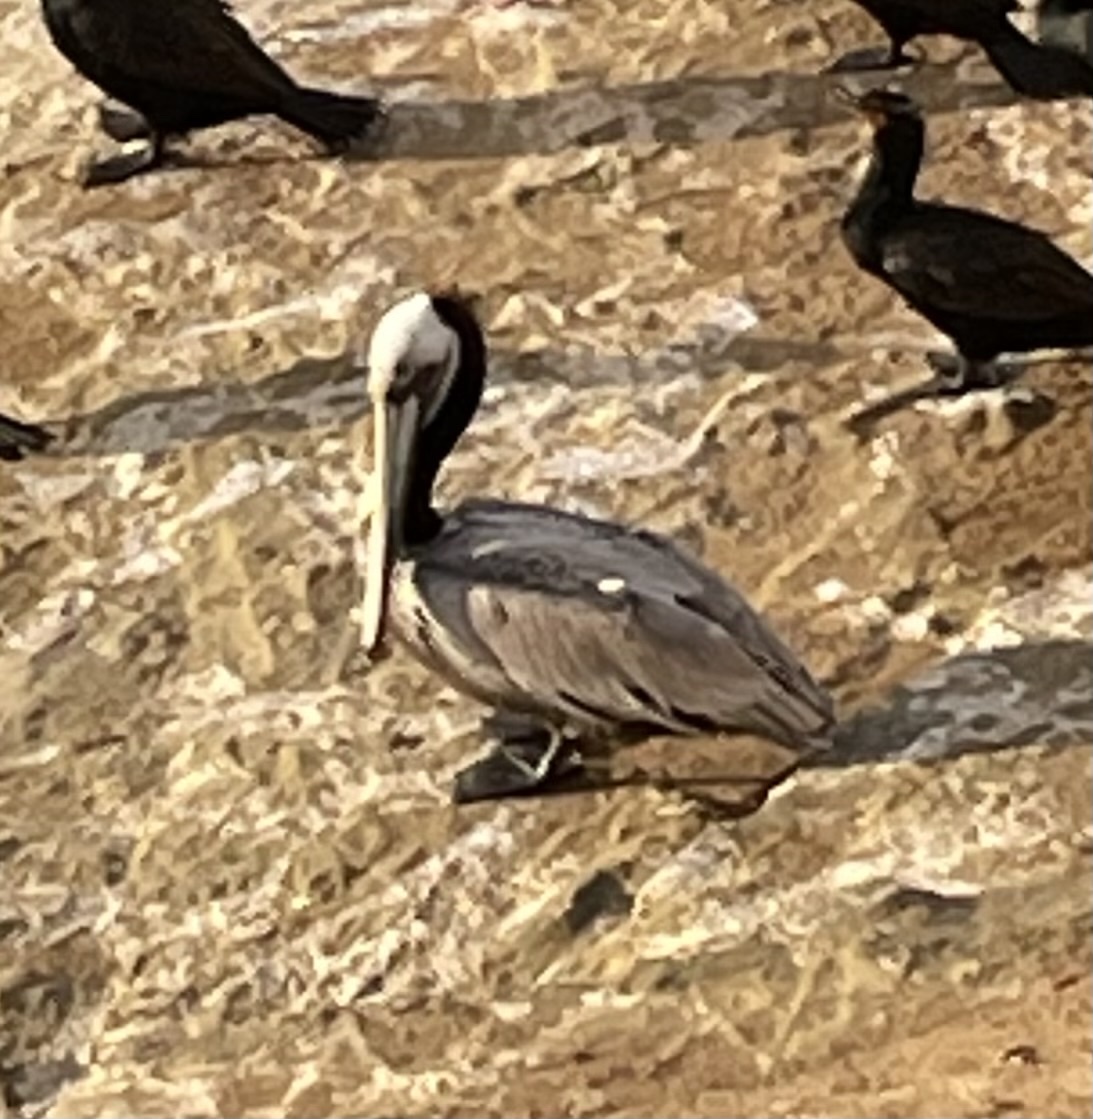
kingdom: Animalia
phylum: Chordata
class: Aves
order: Pelecaniformes
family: Pelecanidae
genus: Pelecanus
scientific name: Pelecanus occidentalis
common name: Brown pelican
